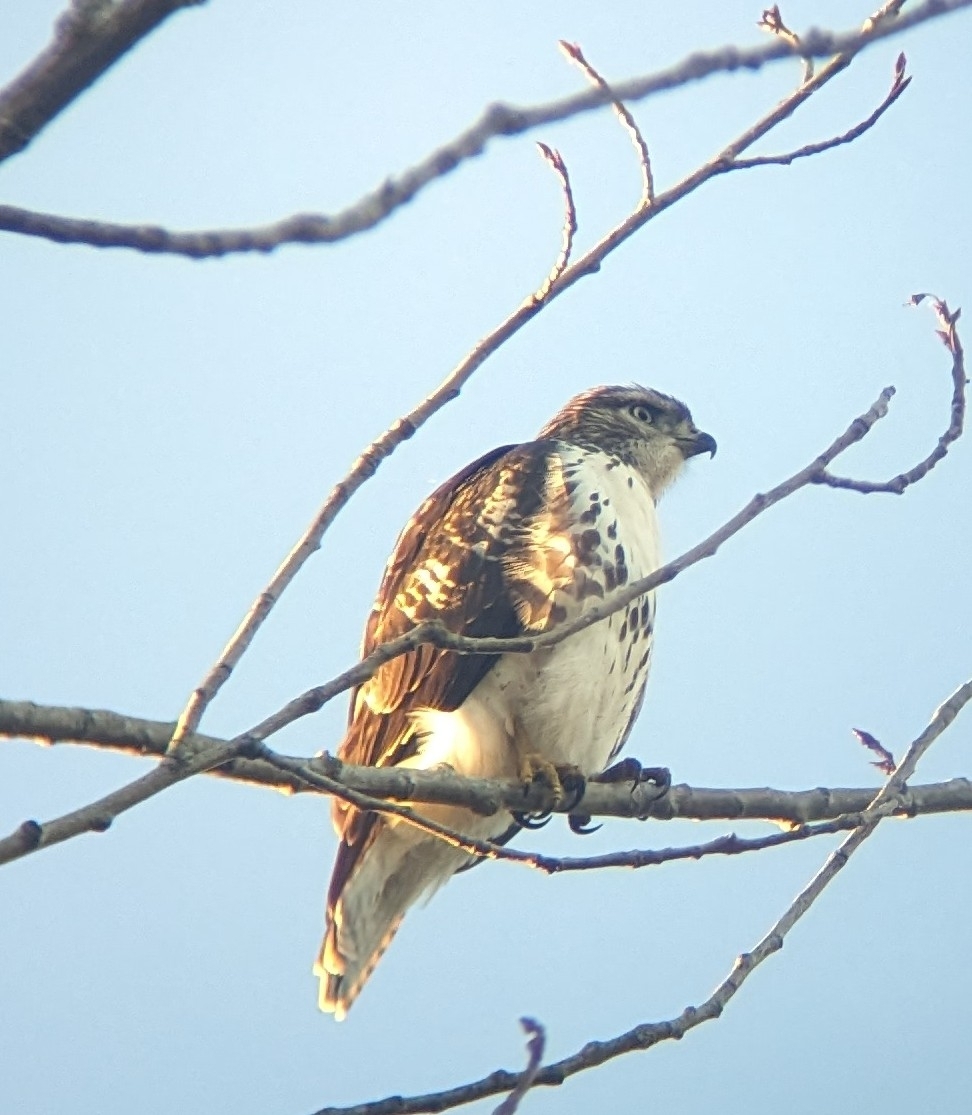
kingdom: Animalia
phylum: Chordata
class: Aves
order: Accipitriformes
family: Accipitridae
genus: Buteo
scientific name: Buteo jamaicensis
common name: Red-tailed hawk
